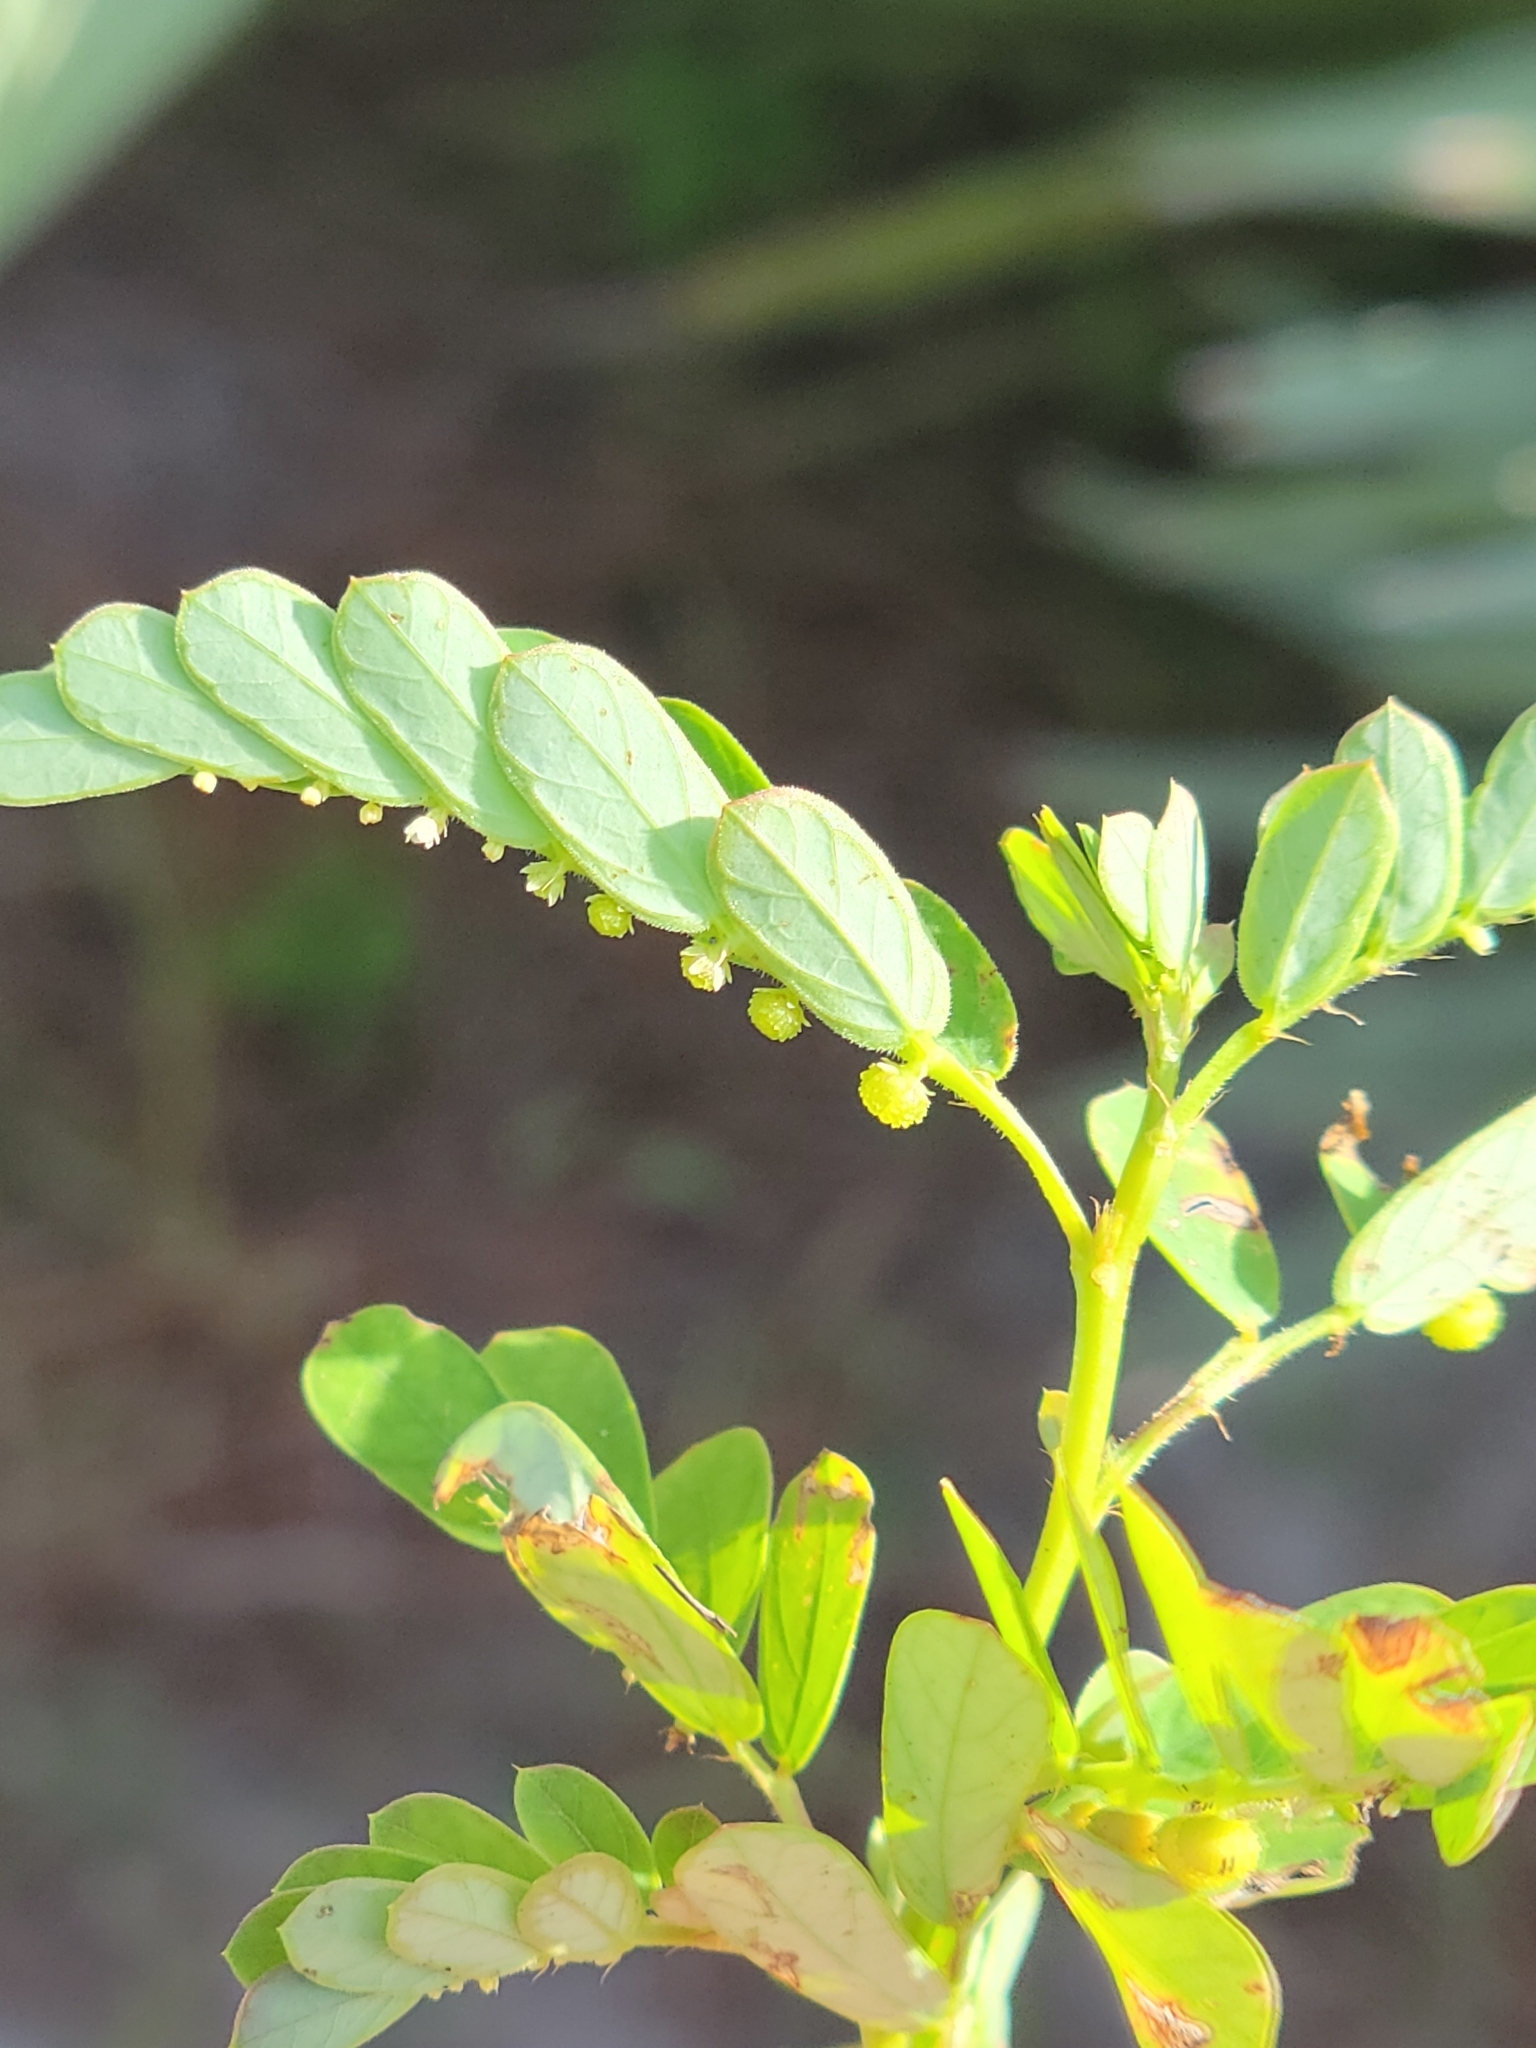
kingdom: Plantae
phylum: Tracheophyta
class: Magnoliopsida
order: Malpighiales
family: Phyllanthaceae
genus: Phyllanthus
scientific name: Phyllanthus urinaria
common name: Chamber bitter
